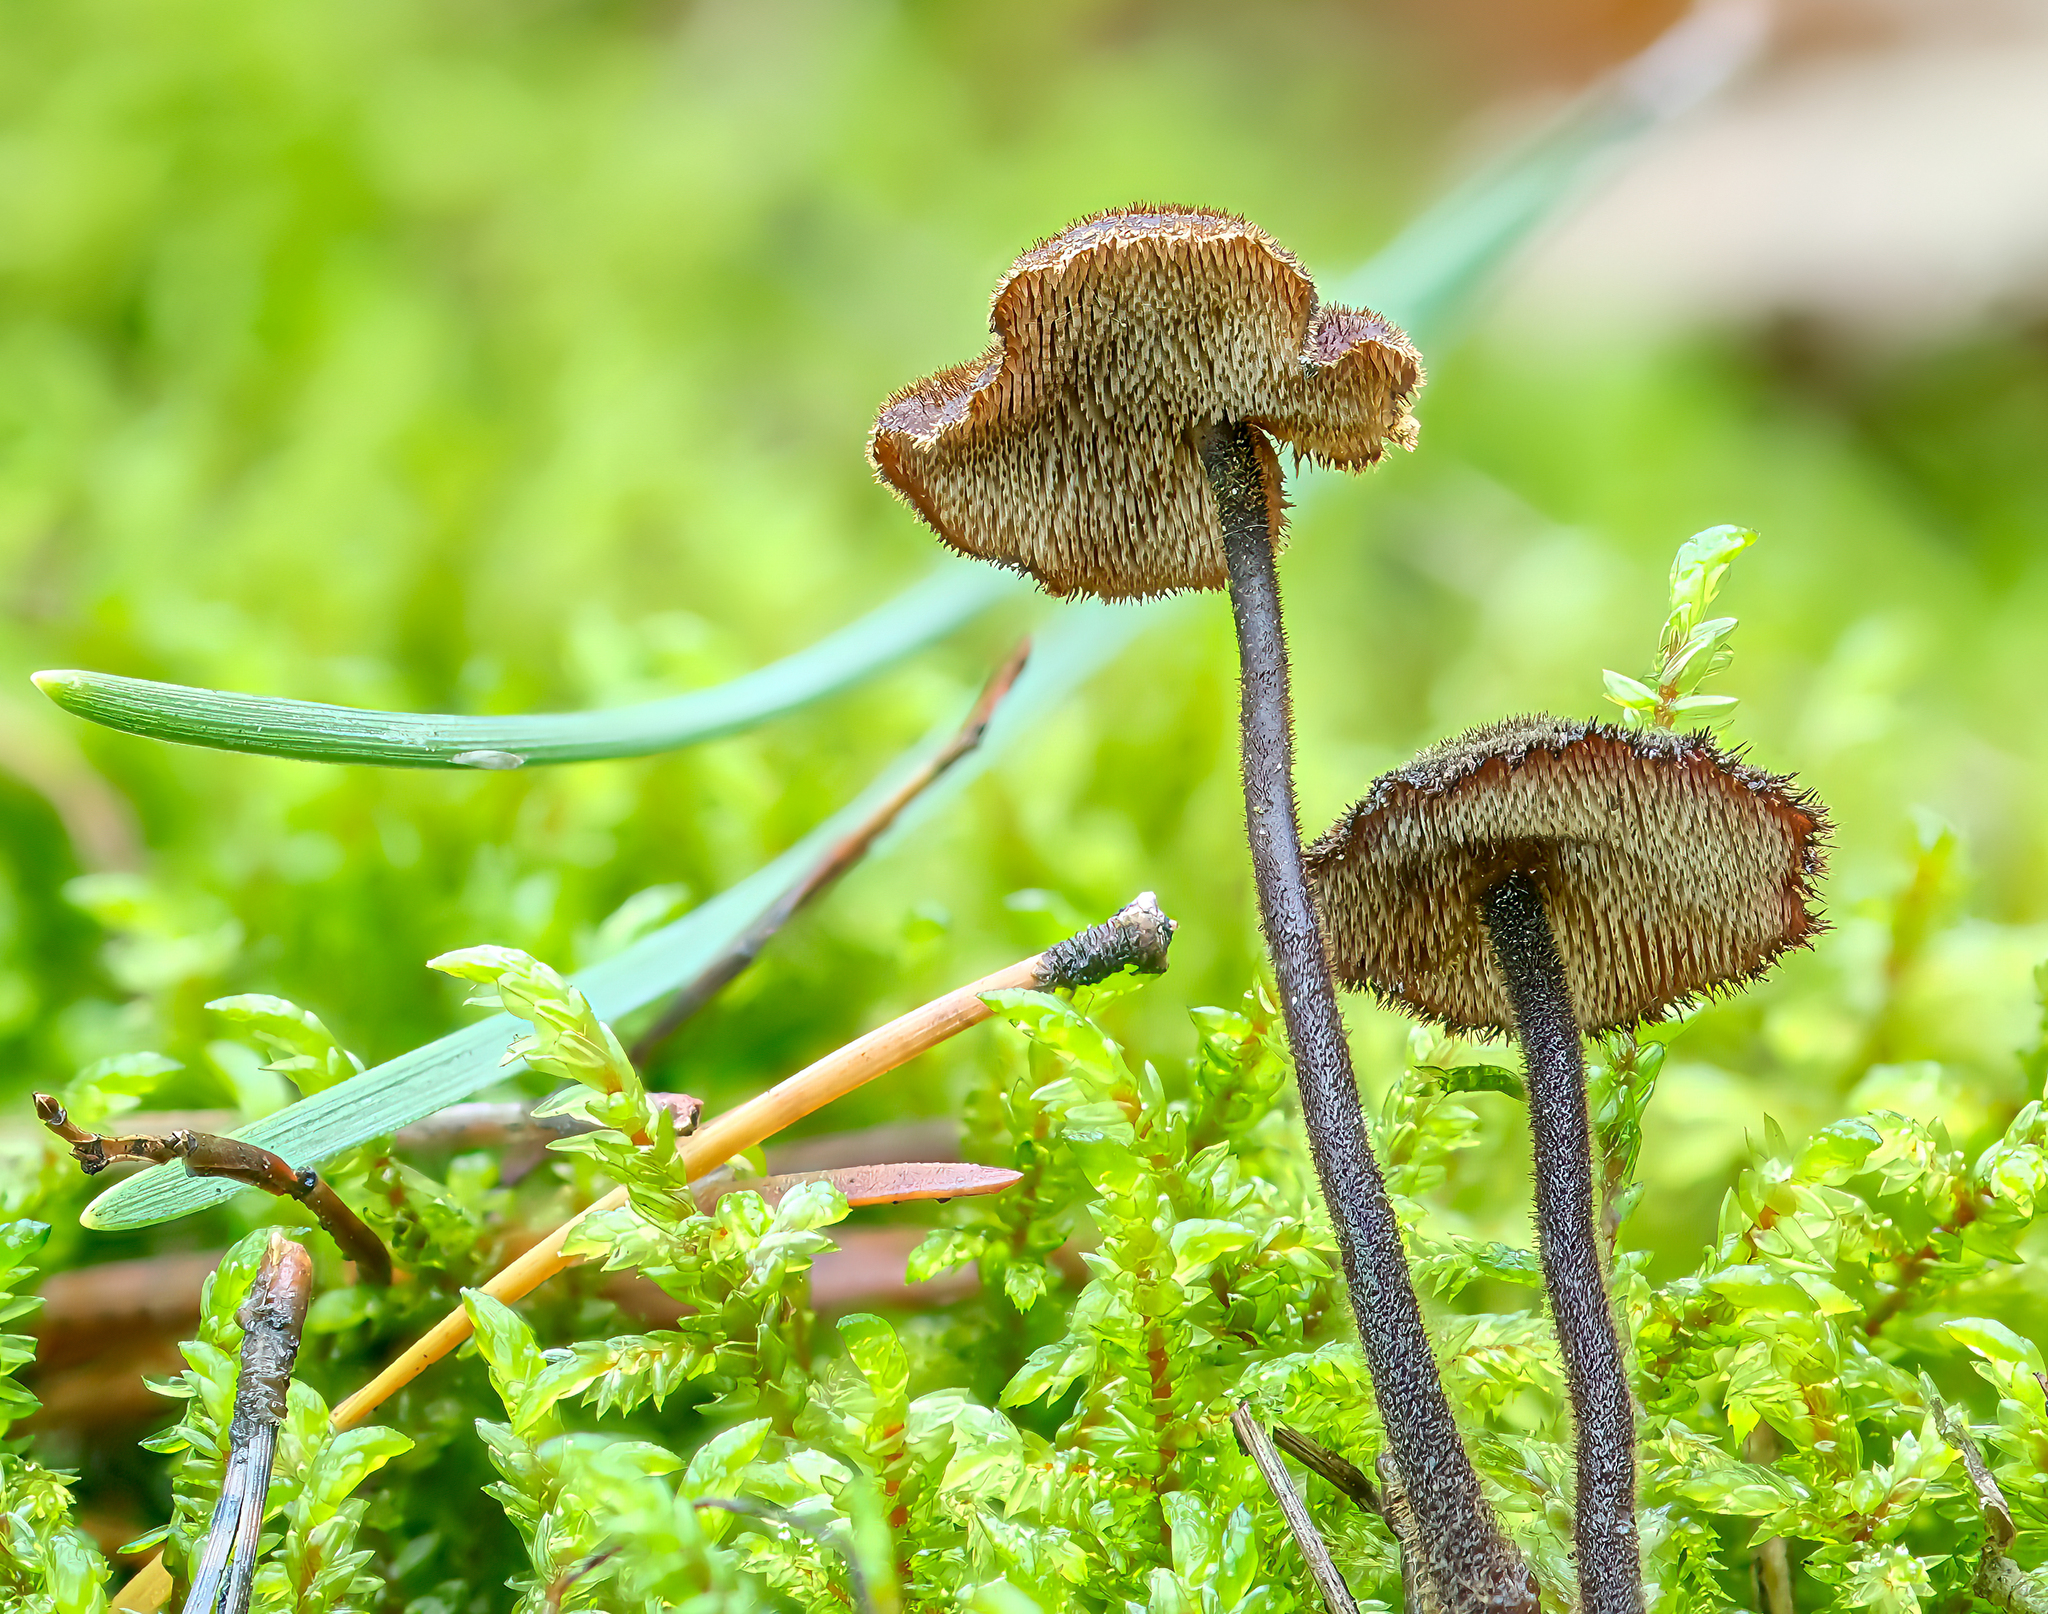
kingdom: Fungi
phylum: Basidiomycota
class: Agaricomycetes
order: Russulales
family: Auriscalpiaceae
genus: Auriscalpium
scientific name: Auriscalpium vulgare
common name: Earpick fungus
